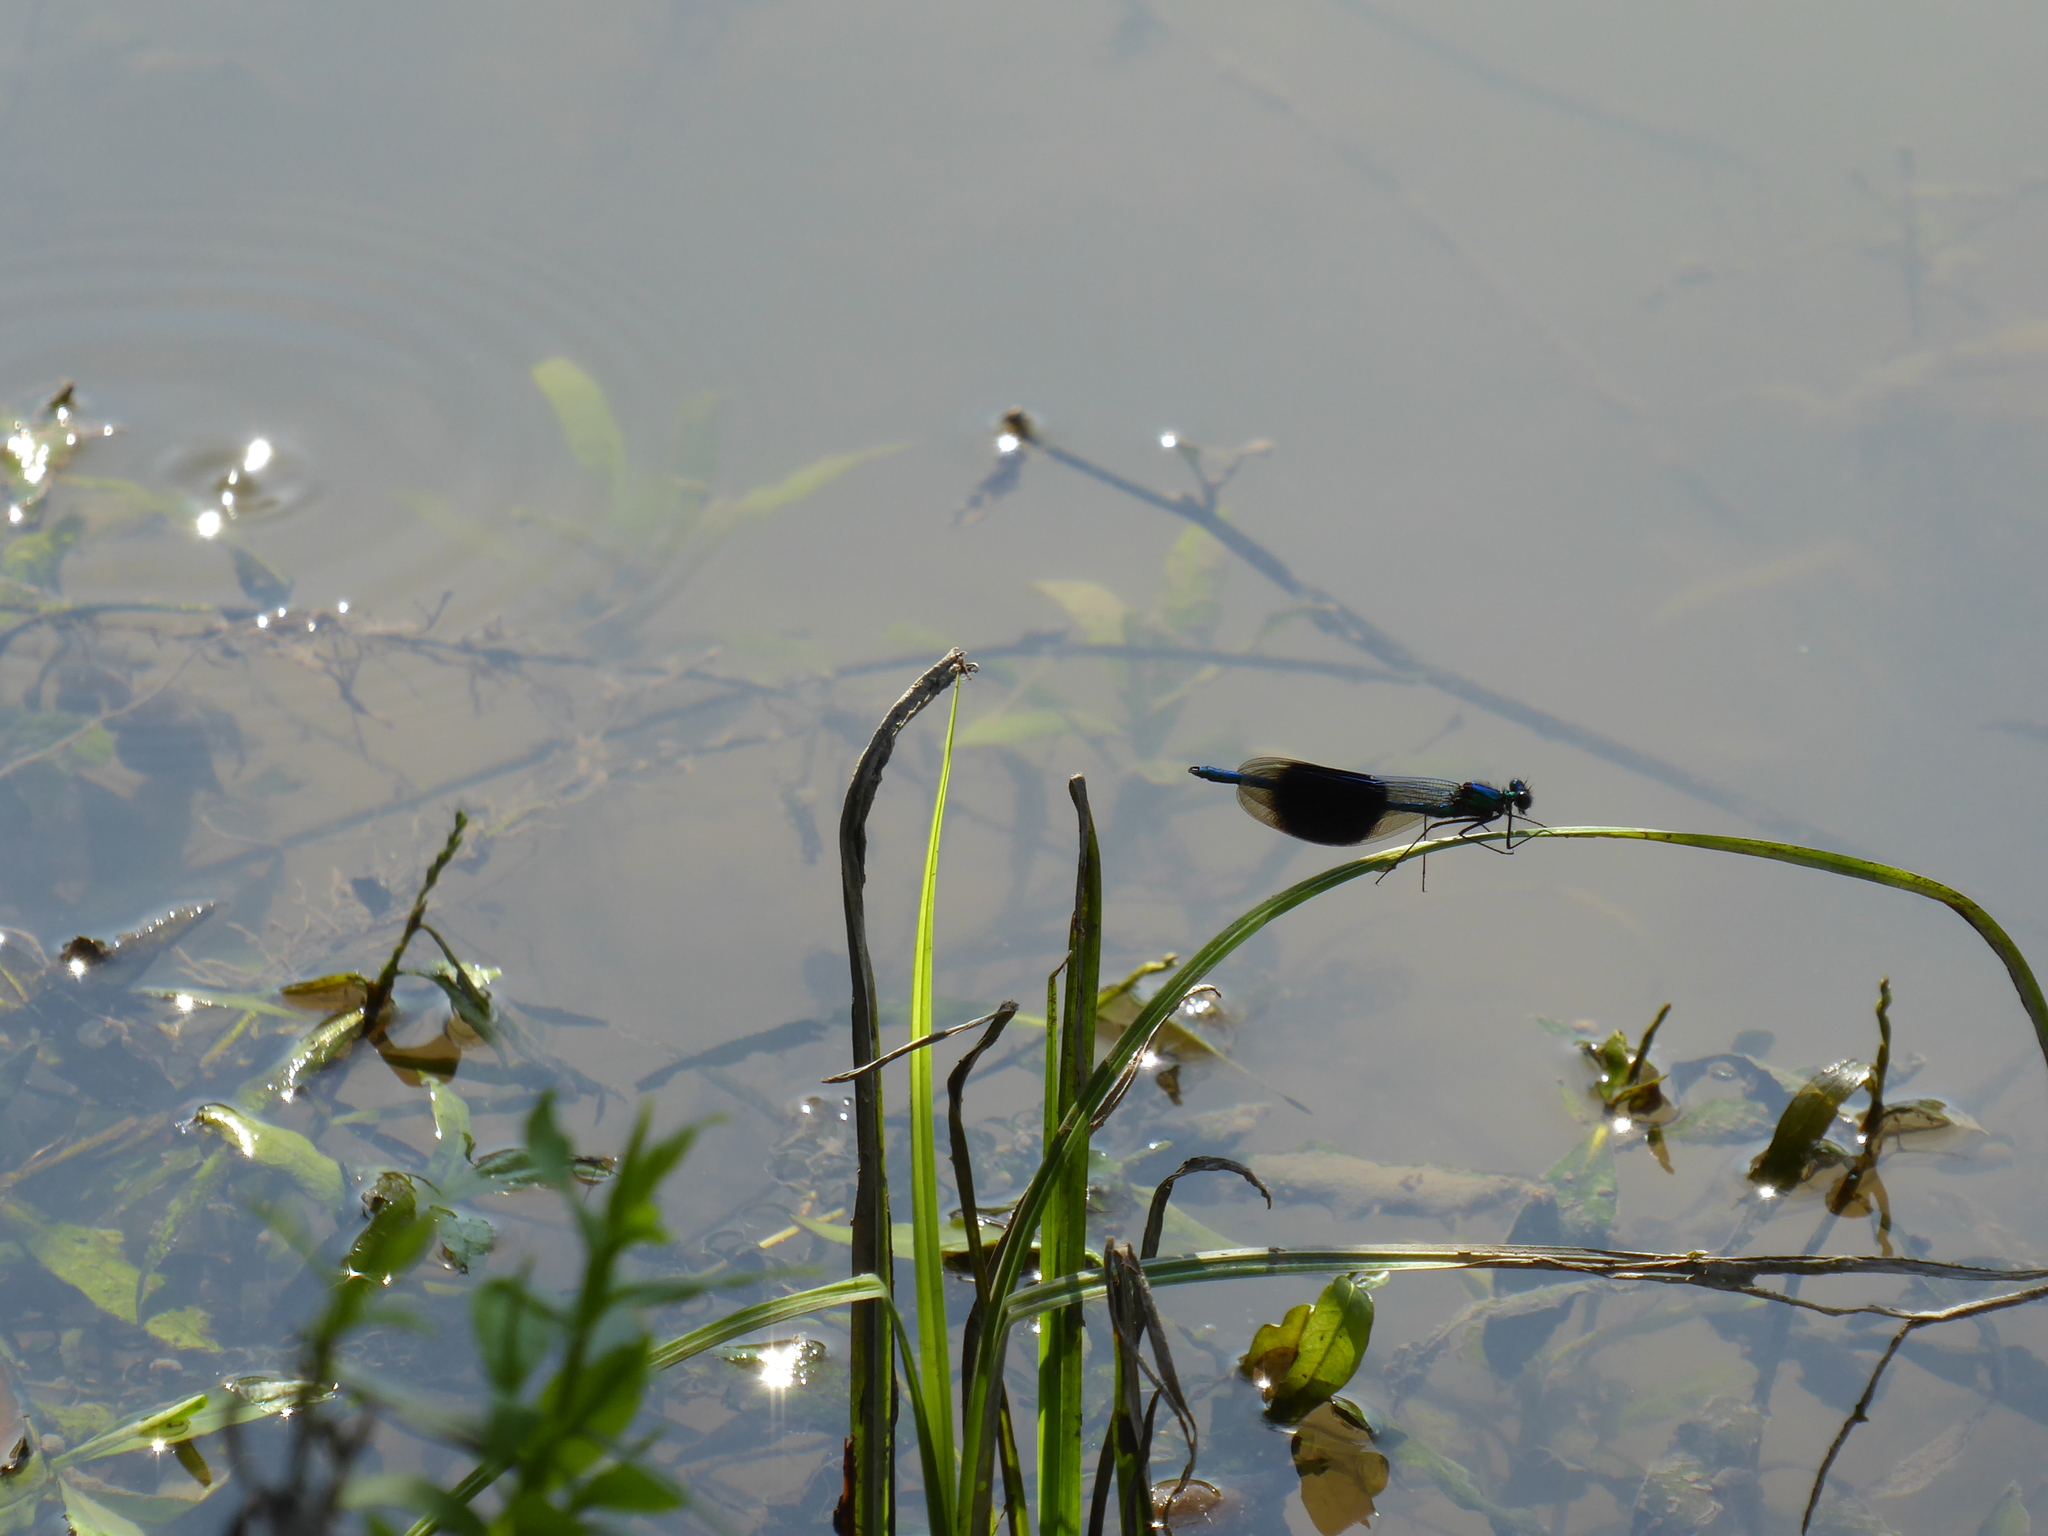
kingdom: Animalia
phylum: Arthropoda
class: Insecta
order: Odonata
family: Calopterygidae
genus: Calopteryx
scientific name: Calopteryx splendens
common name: Banded demoiselle
